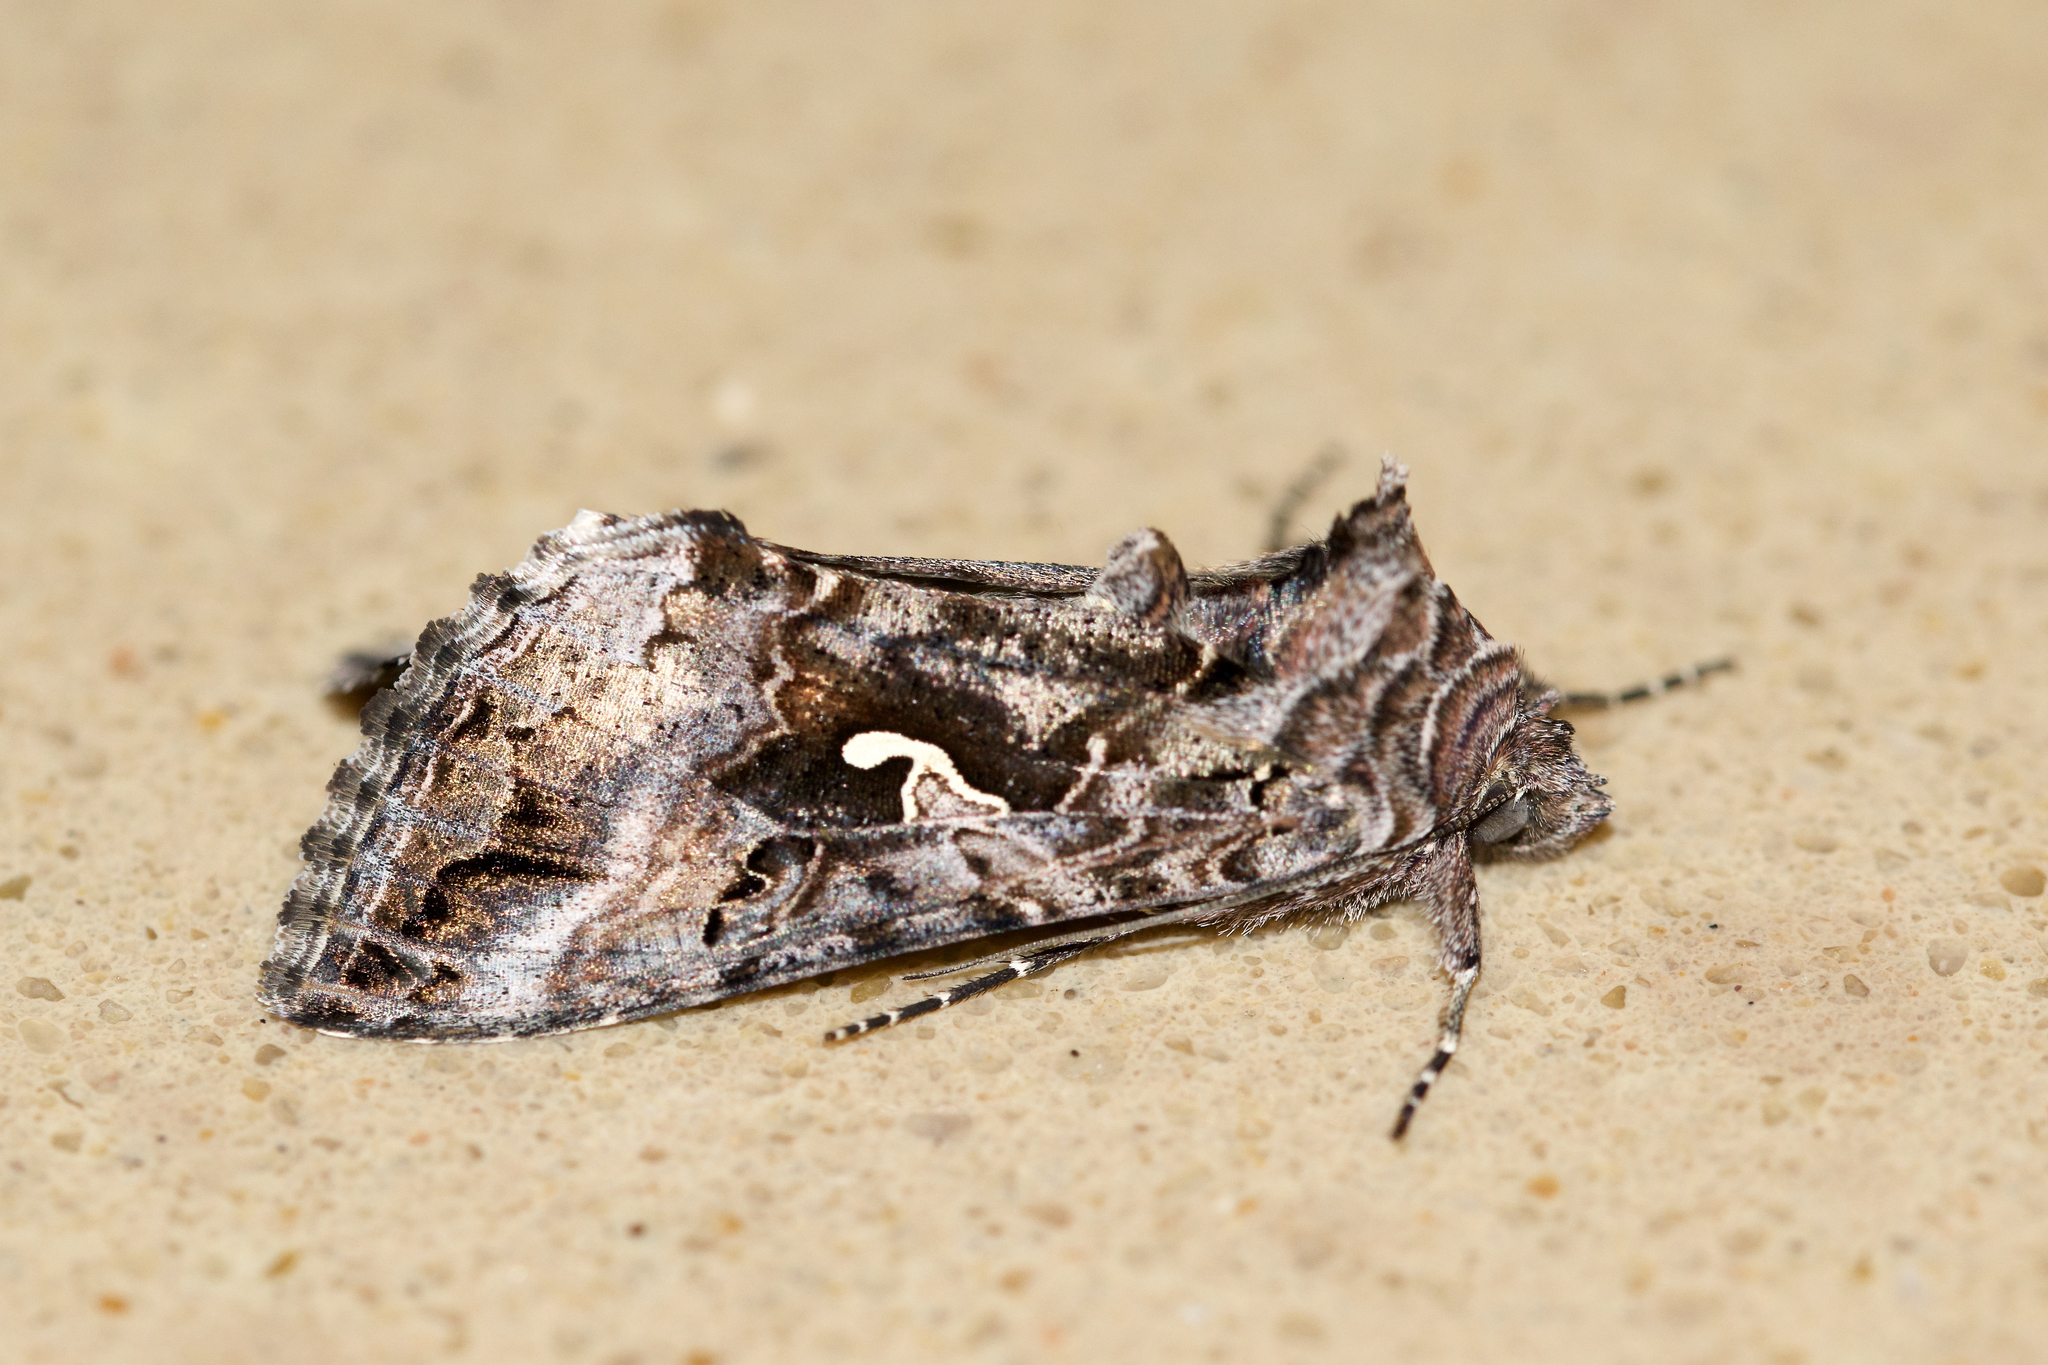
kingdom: Animalia
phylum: Arthropoda
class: Insecta
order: Lepidoptera
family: Noctuidae
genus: Autographa
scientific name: Autographa californica
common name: Alfalfa looper
